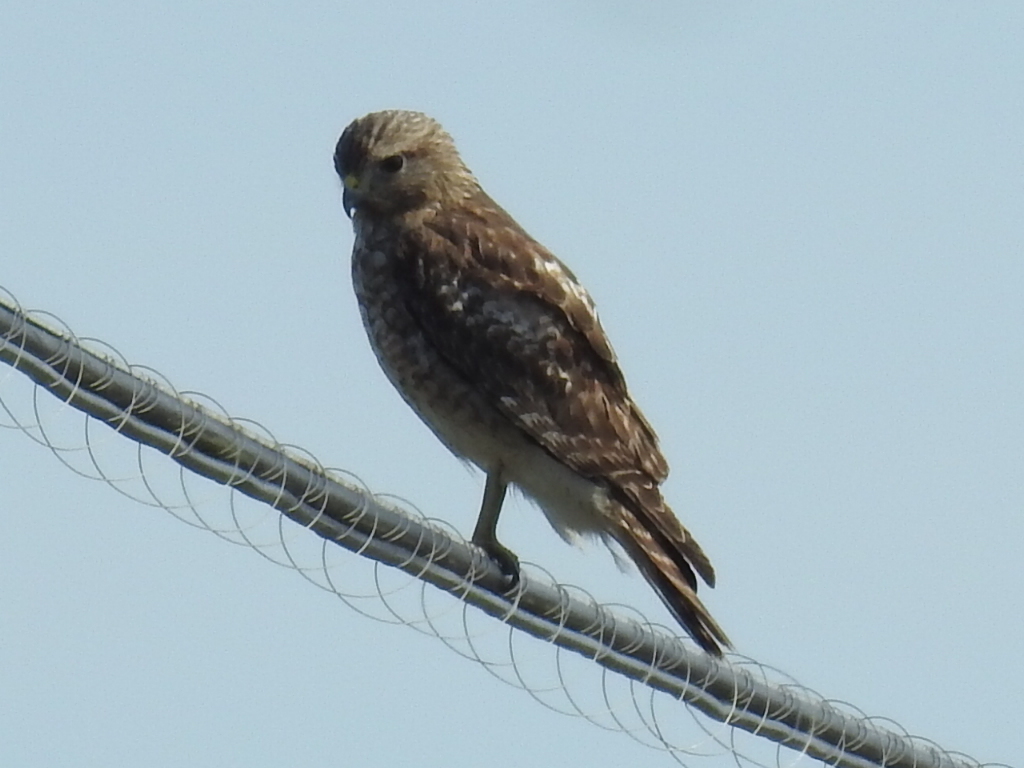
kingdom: Animalia
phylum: Chordata
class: Aves
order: Accipitriformes
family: Accipitridae
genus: Buteo
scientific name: Buteo lineatus
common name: Red-shouldered hawk
